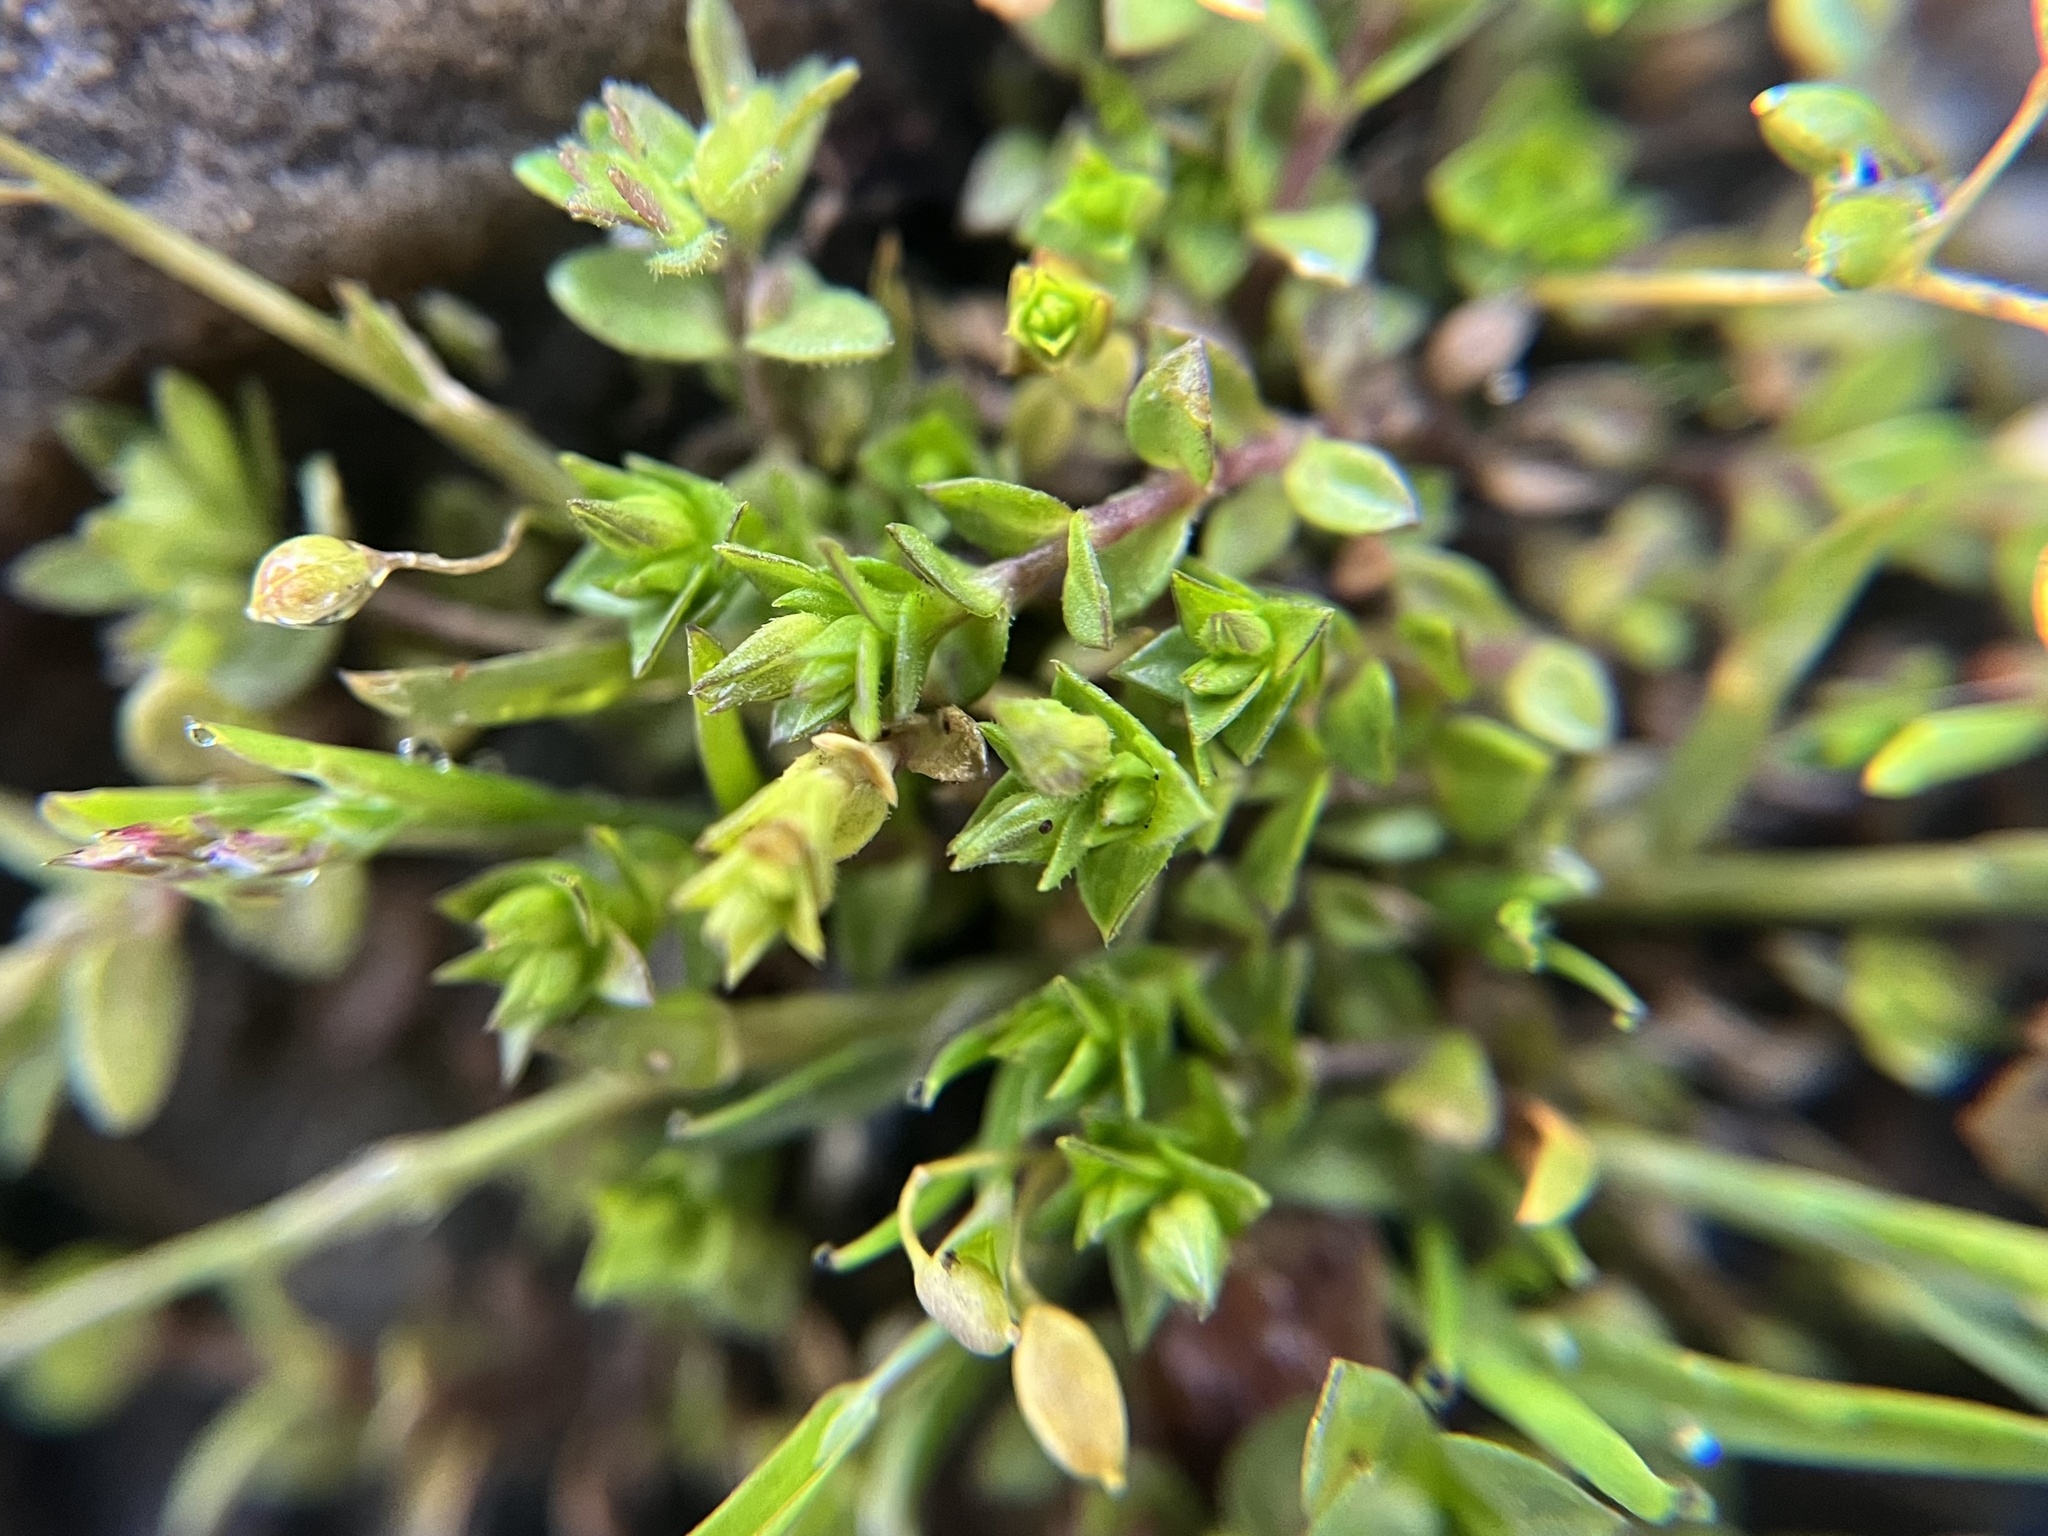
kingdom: Plantae
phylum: Tracheophyta
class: Magnoliopsida
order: Caryophyllales
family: Caryophyllaceae
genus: Arenaria
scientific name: Arenaria serpyllifolia
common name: Thyme-leaved sandwort
